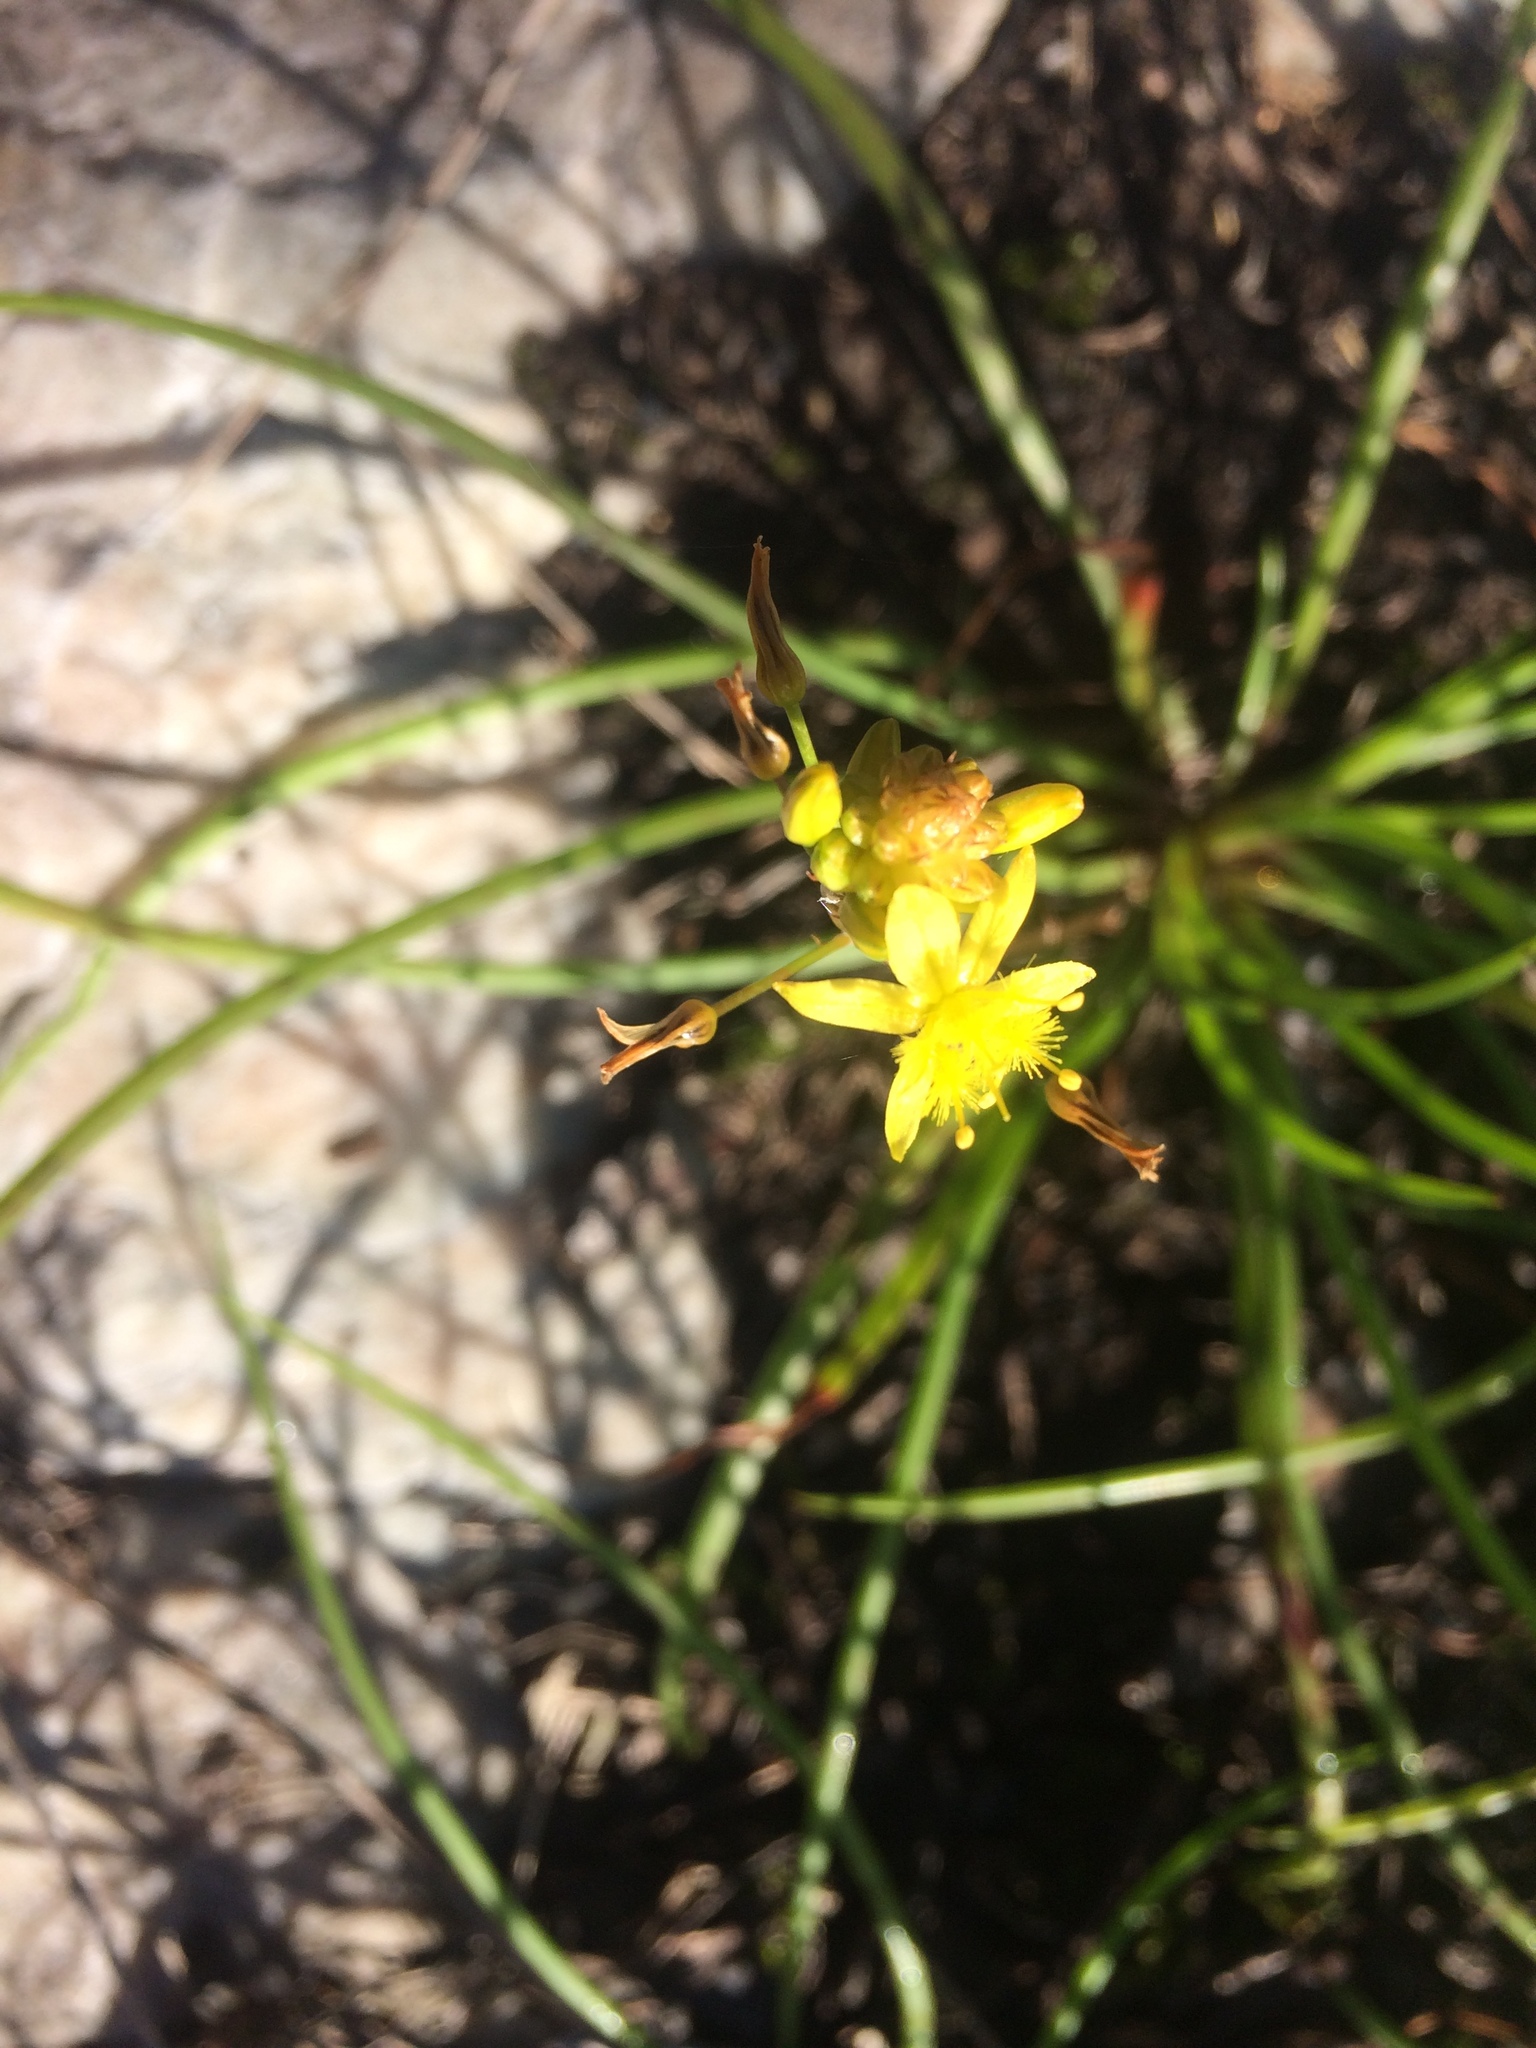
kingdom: Plantae
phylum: Tracheophyta
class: Liliopsida
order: Asparagales
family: Asphodelaceae
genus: Bulbine
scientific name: Bulbine audreyae
